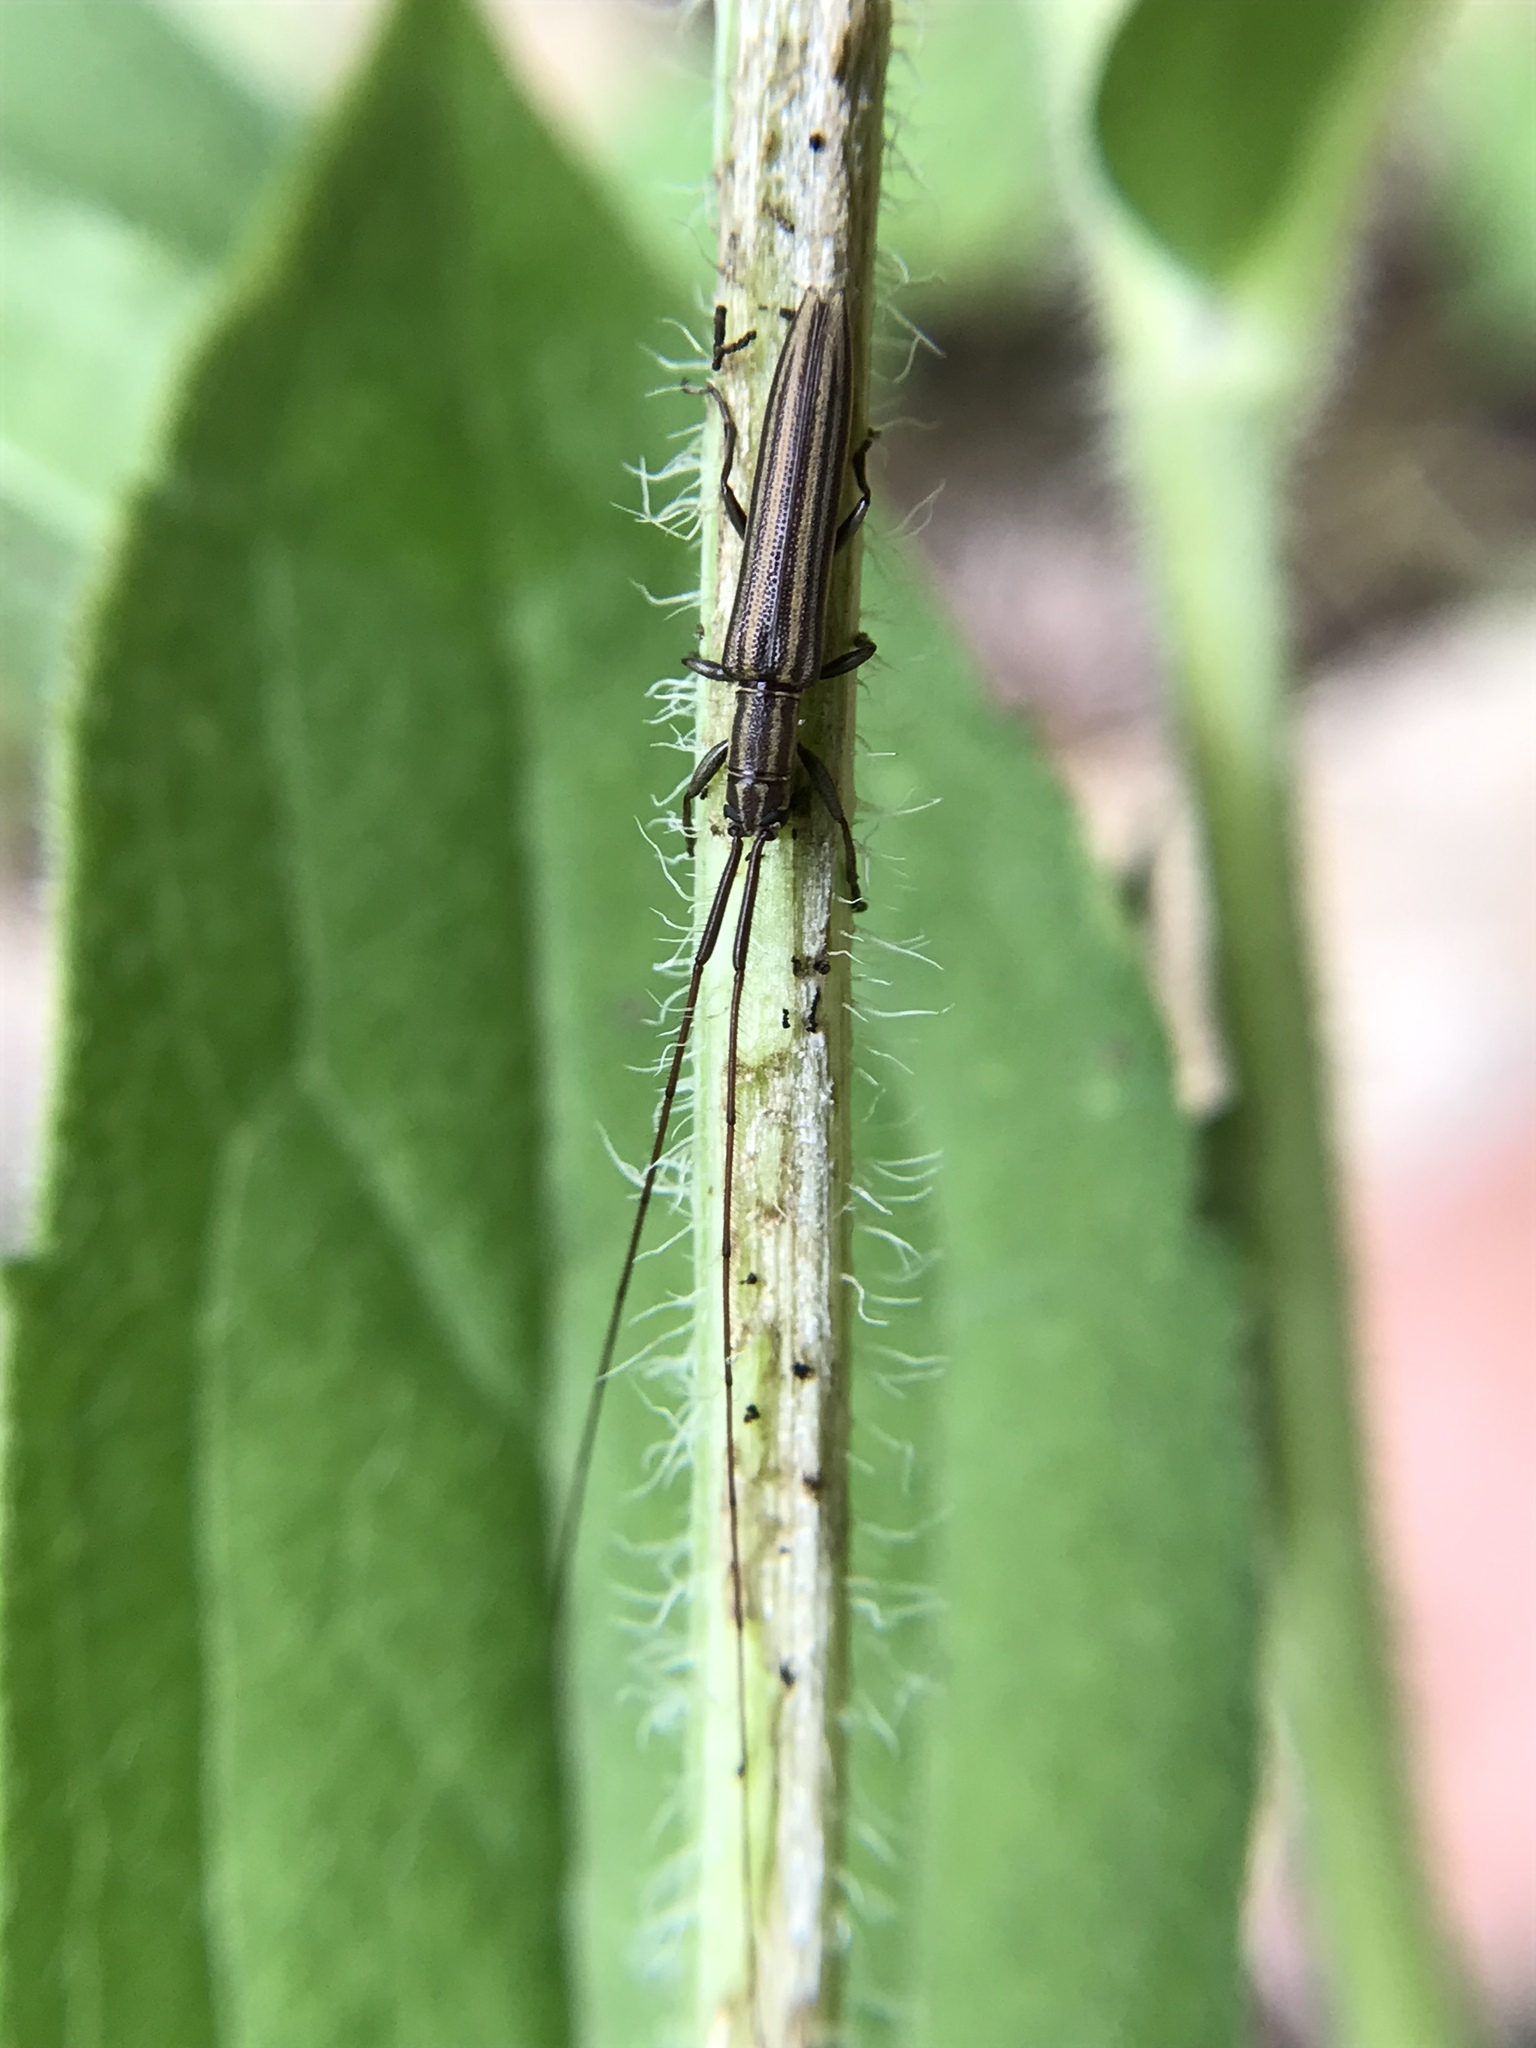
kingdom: Animalia
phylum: Arthropoda
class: Insecta
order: Coleoptera
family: Cerambycidae
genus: Hippopsis
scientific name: Hippopsis
